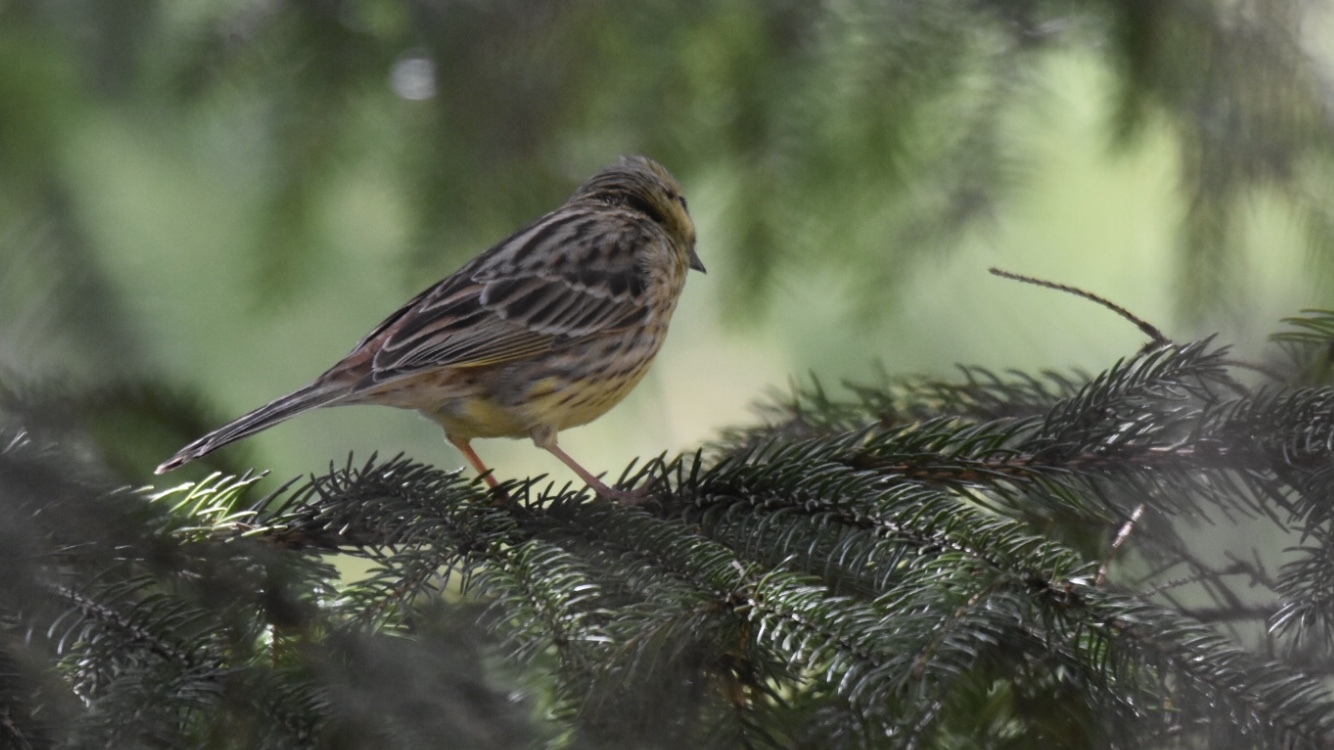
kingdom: Animalia
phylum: Chordata
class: Aves
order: Passeriformes
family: Emberizidae
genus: Emberiza
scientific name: Emberiza citrinella
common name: Yellowhammer
